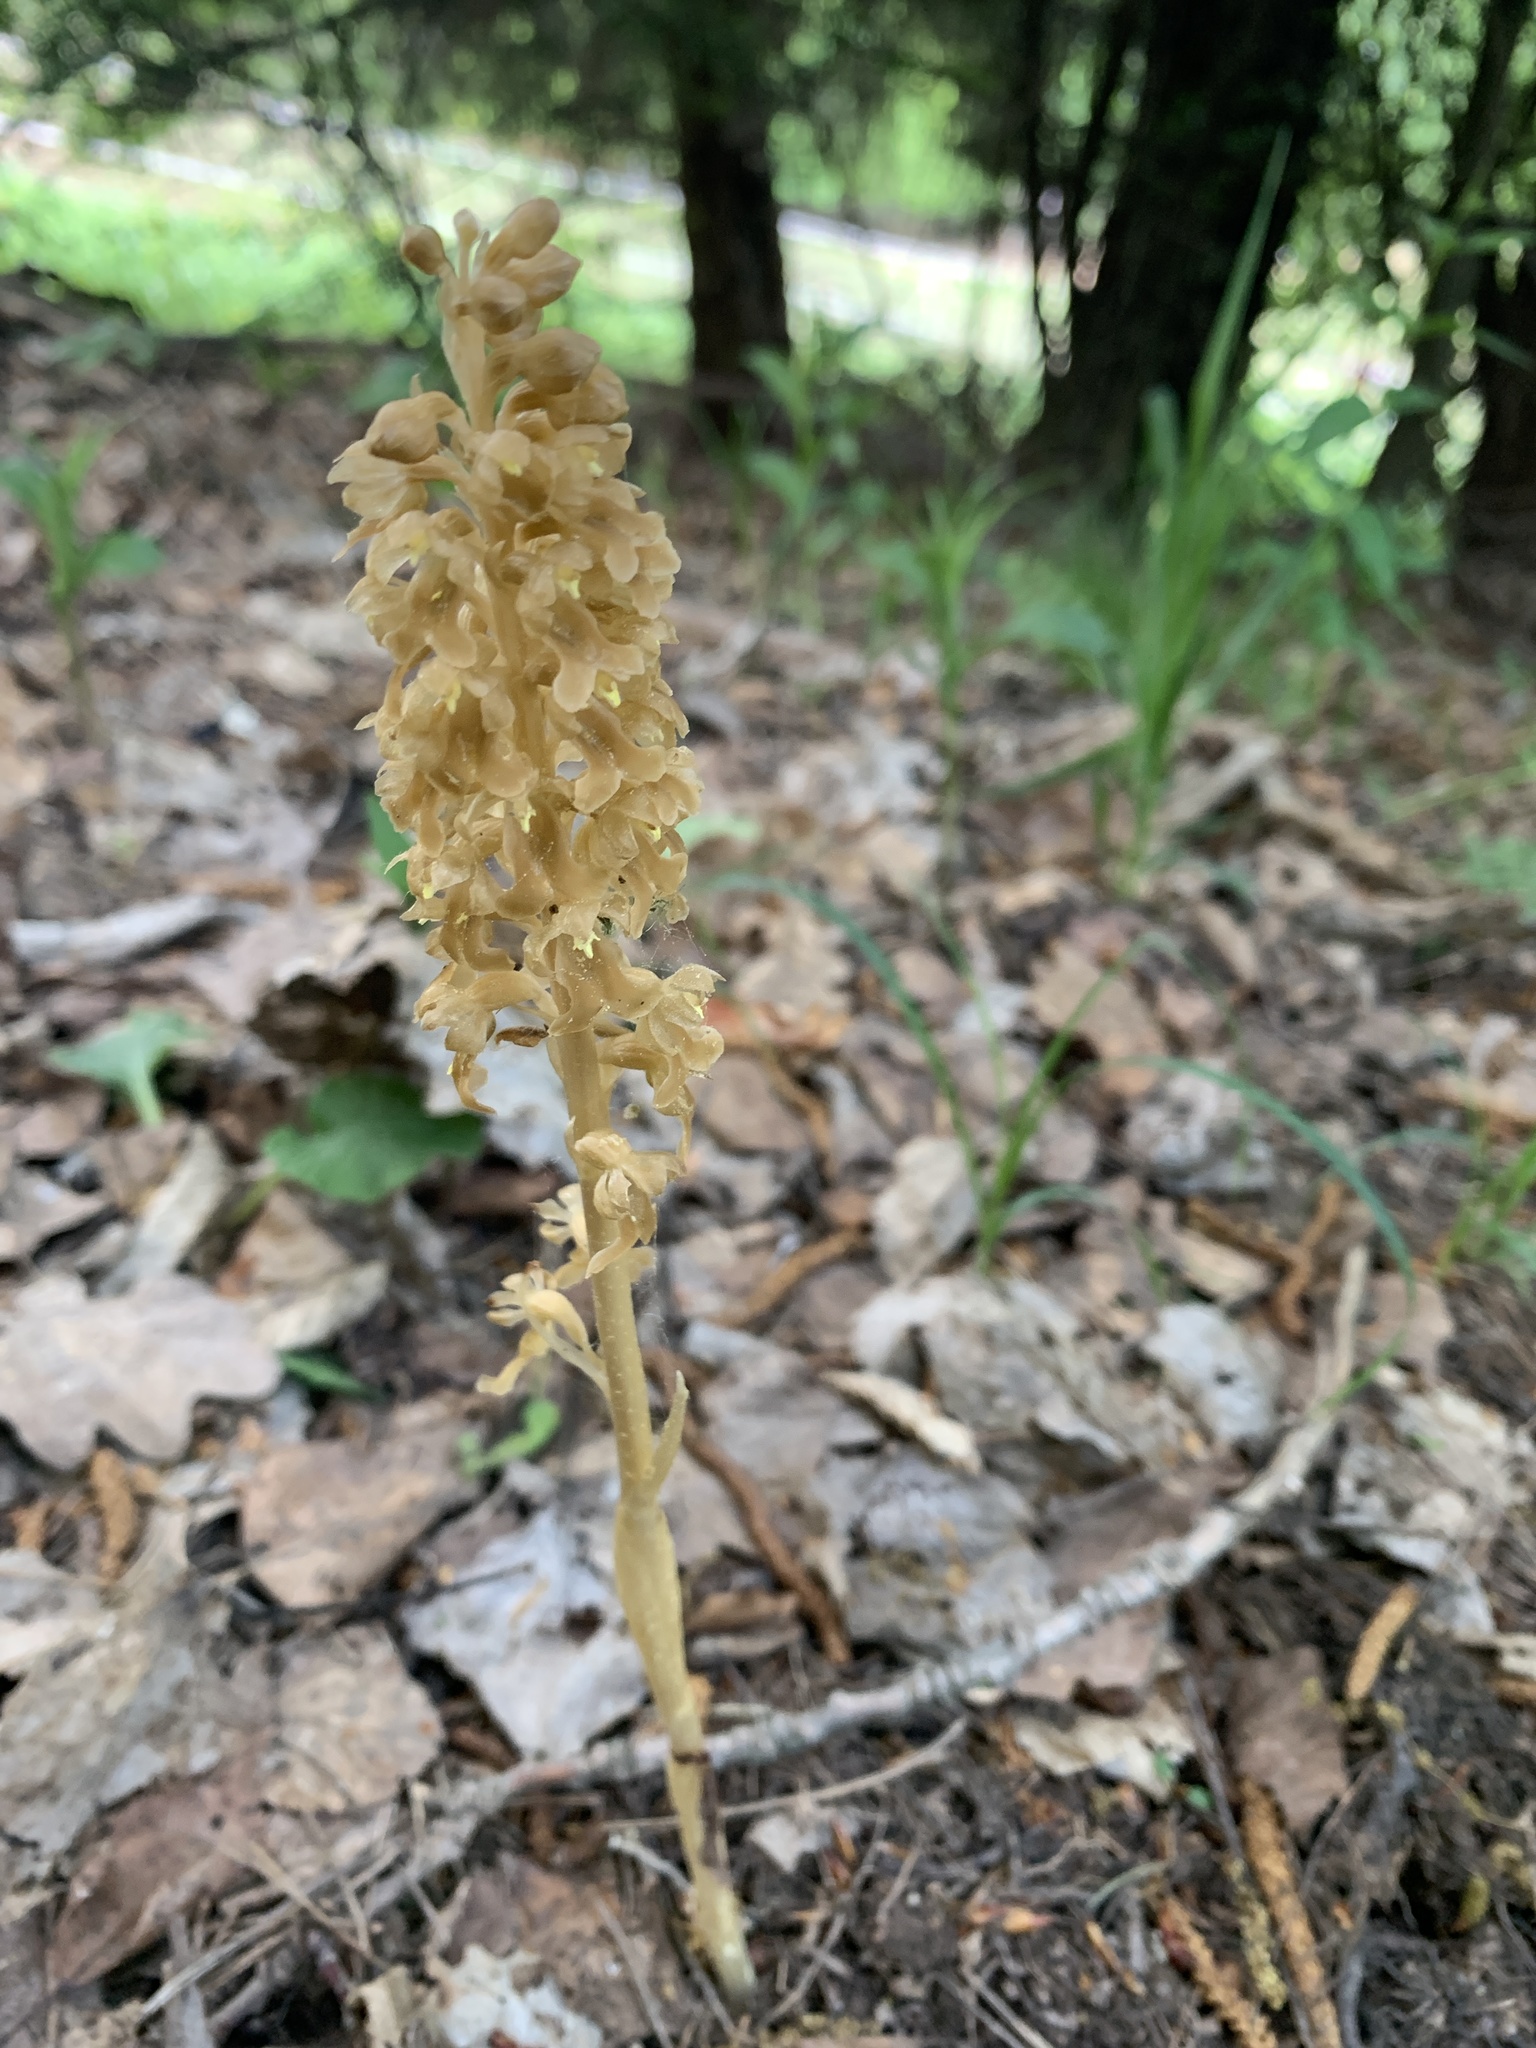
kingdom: Plantae
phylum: Tracheophyta
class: Liliopsida
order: Asparagales
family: Orchidaceae
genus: Neottia
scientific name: Neottia nidus-avis
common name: Bird's-nest orchid
